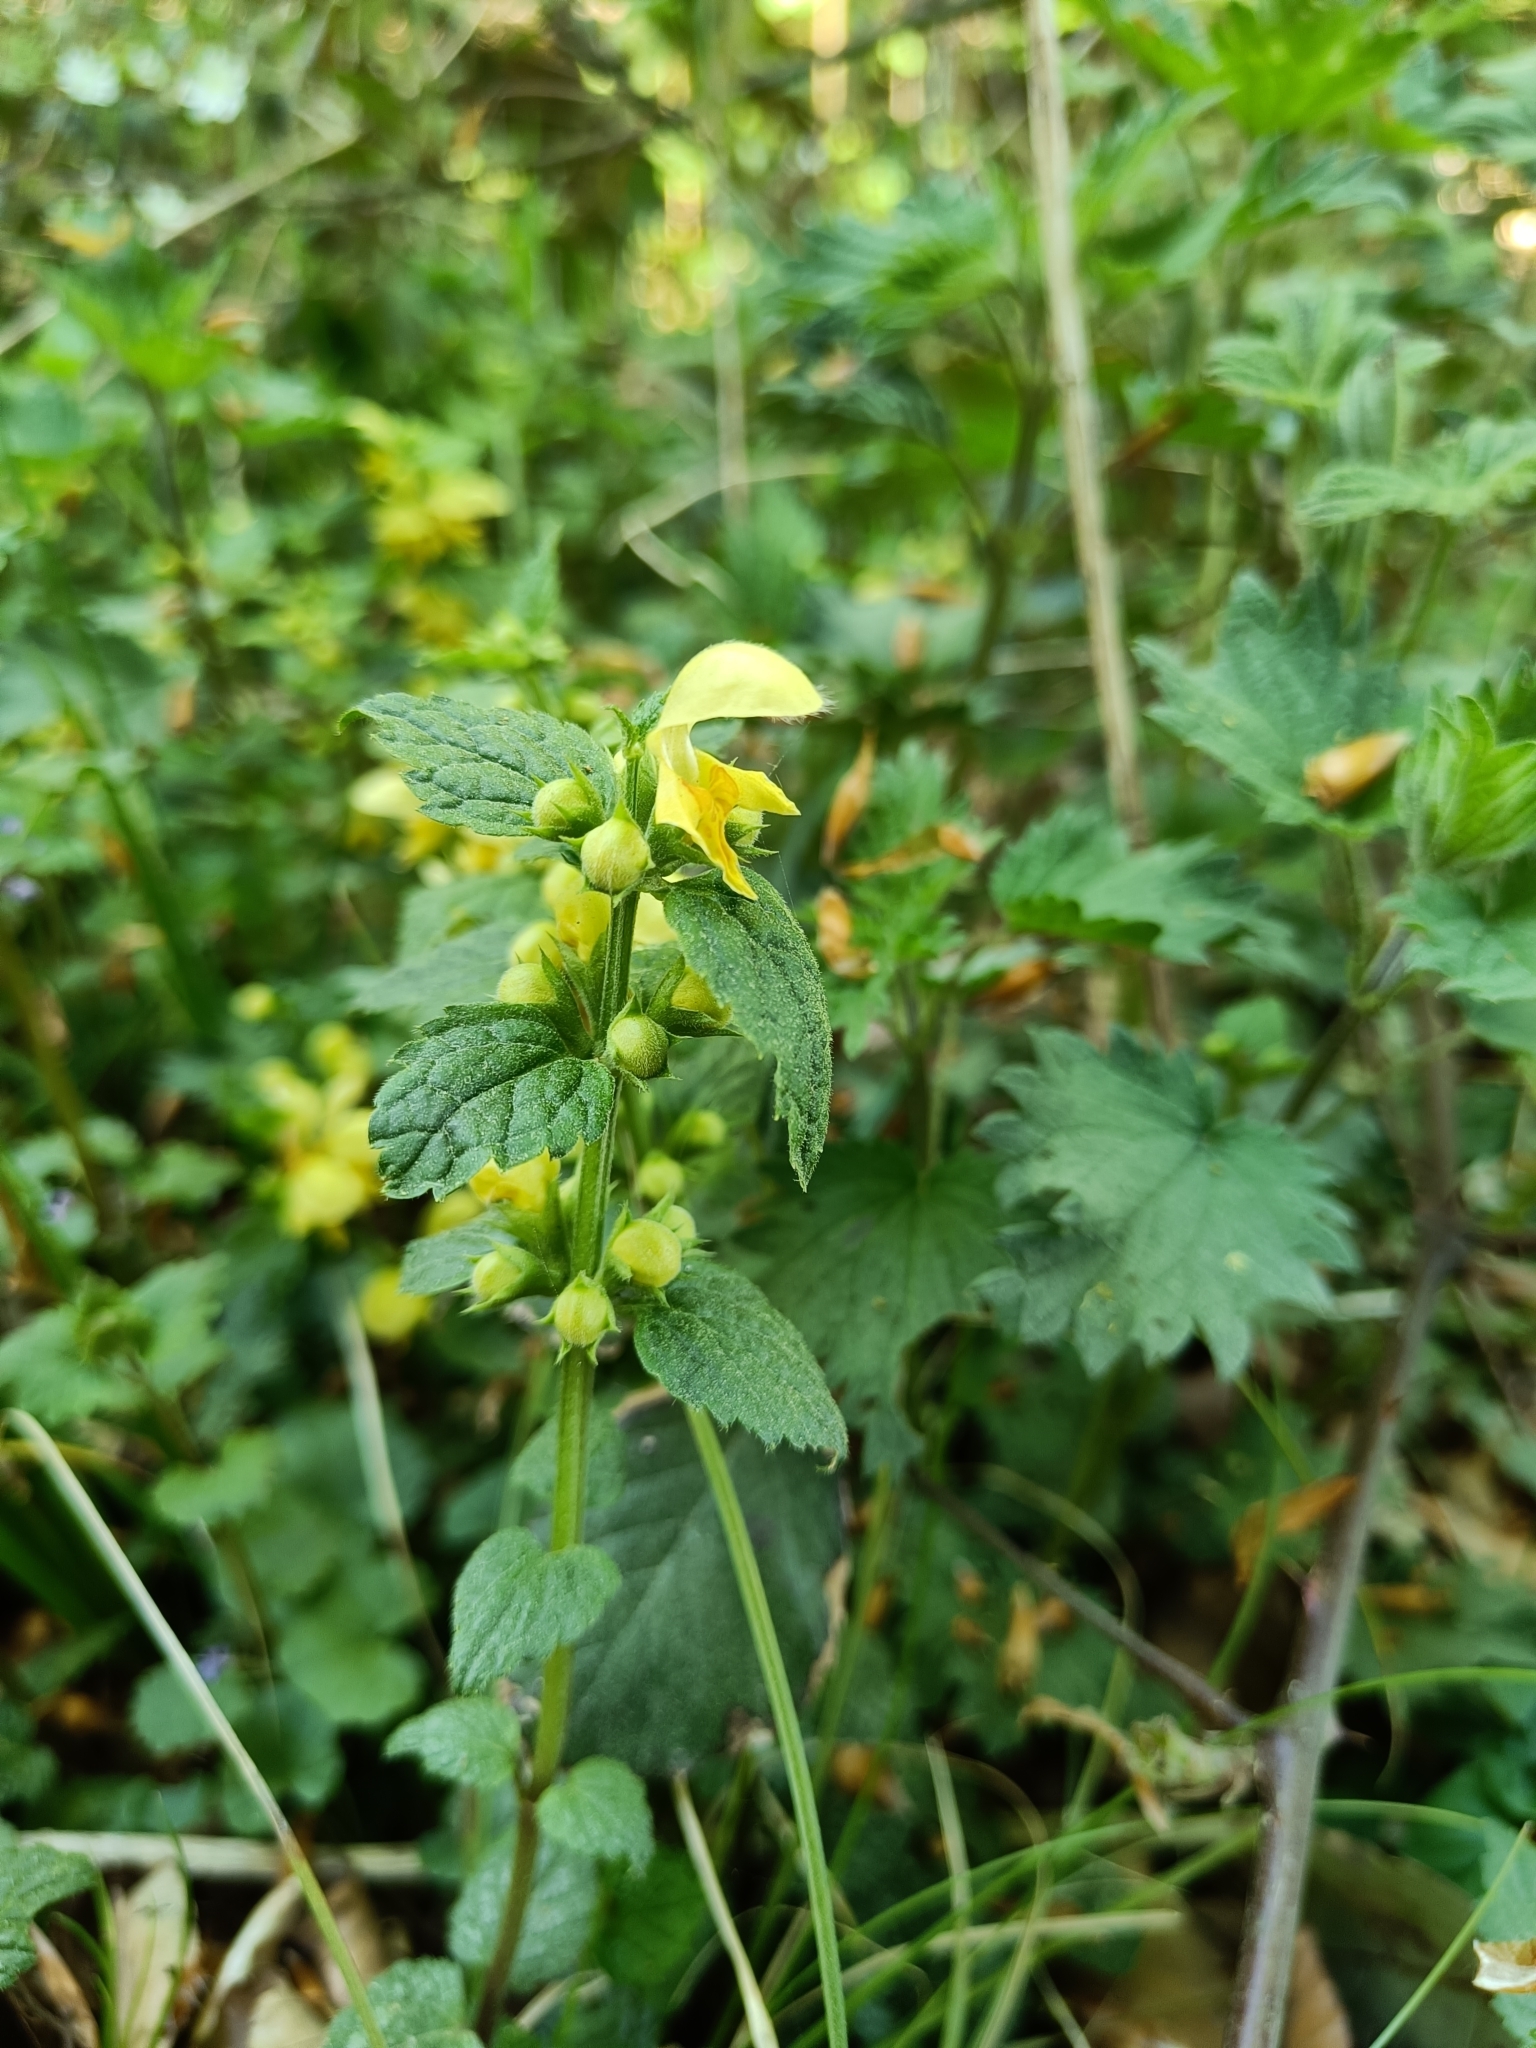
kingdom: Plantae
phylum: Tracheophyta
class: Magnoliopsida
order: Lamiales
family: Lamiaceae
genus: Lamium
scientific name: Lamium galeobdolon
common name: Yellow archangel
